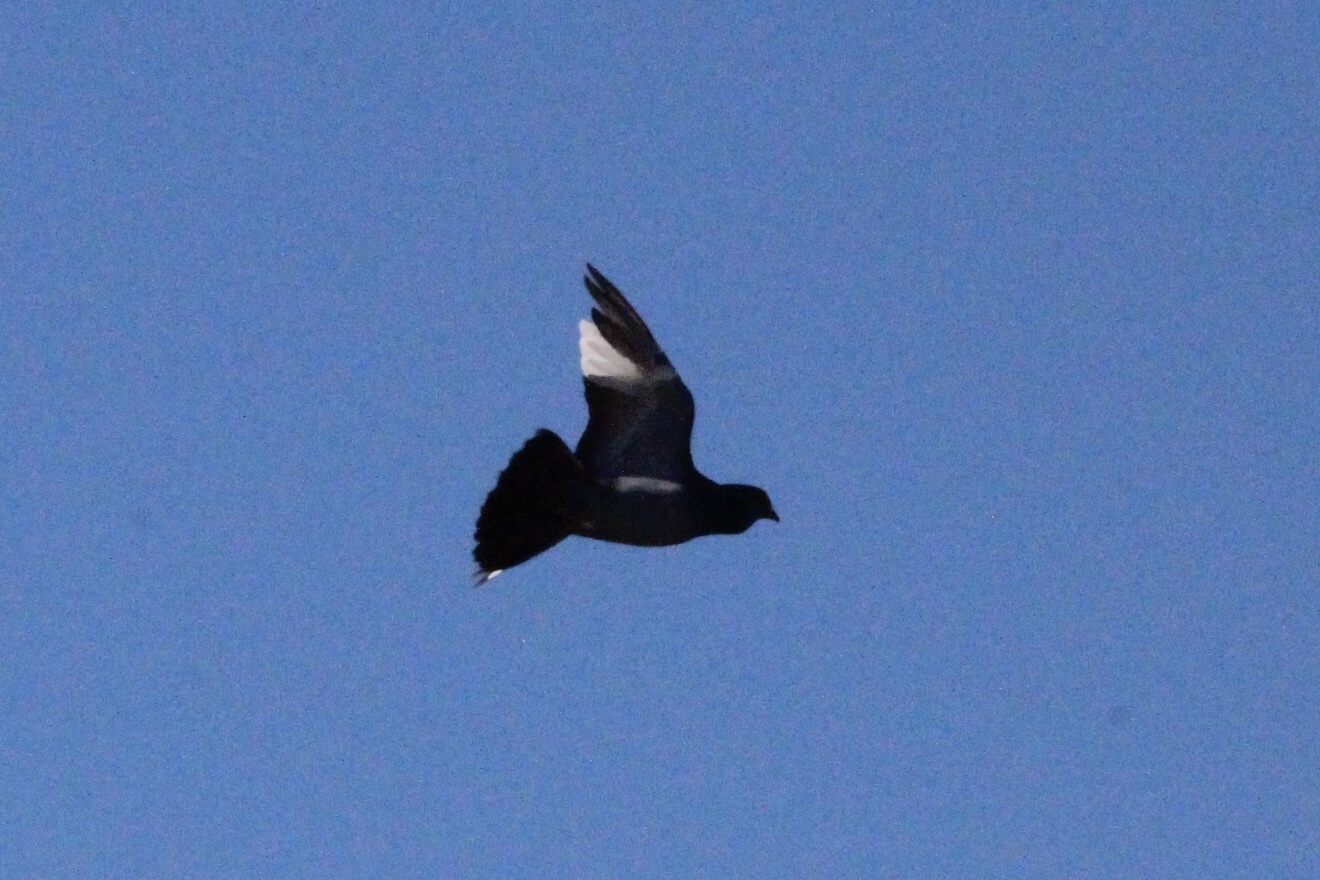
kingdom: Animalia
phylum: Chordata
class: Aves
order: Columbiformes
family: Columbidae
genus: Columba
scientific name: Columba livia
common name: Rock pigeon
